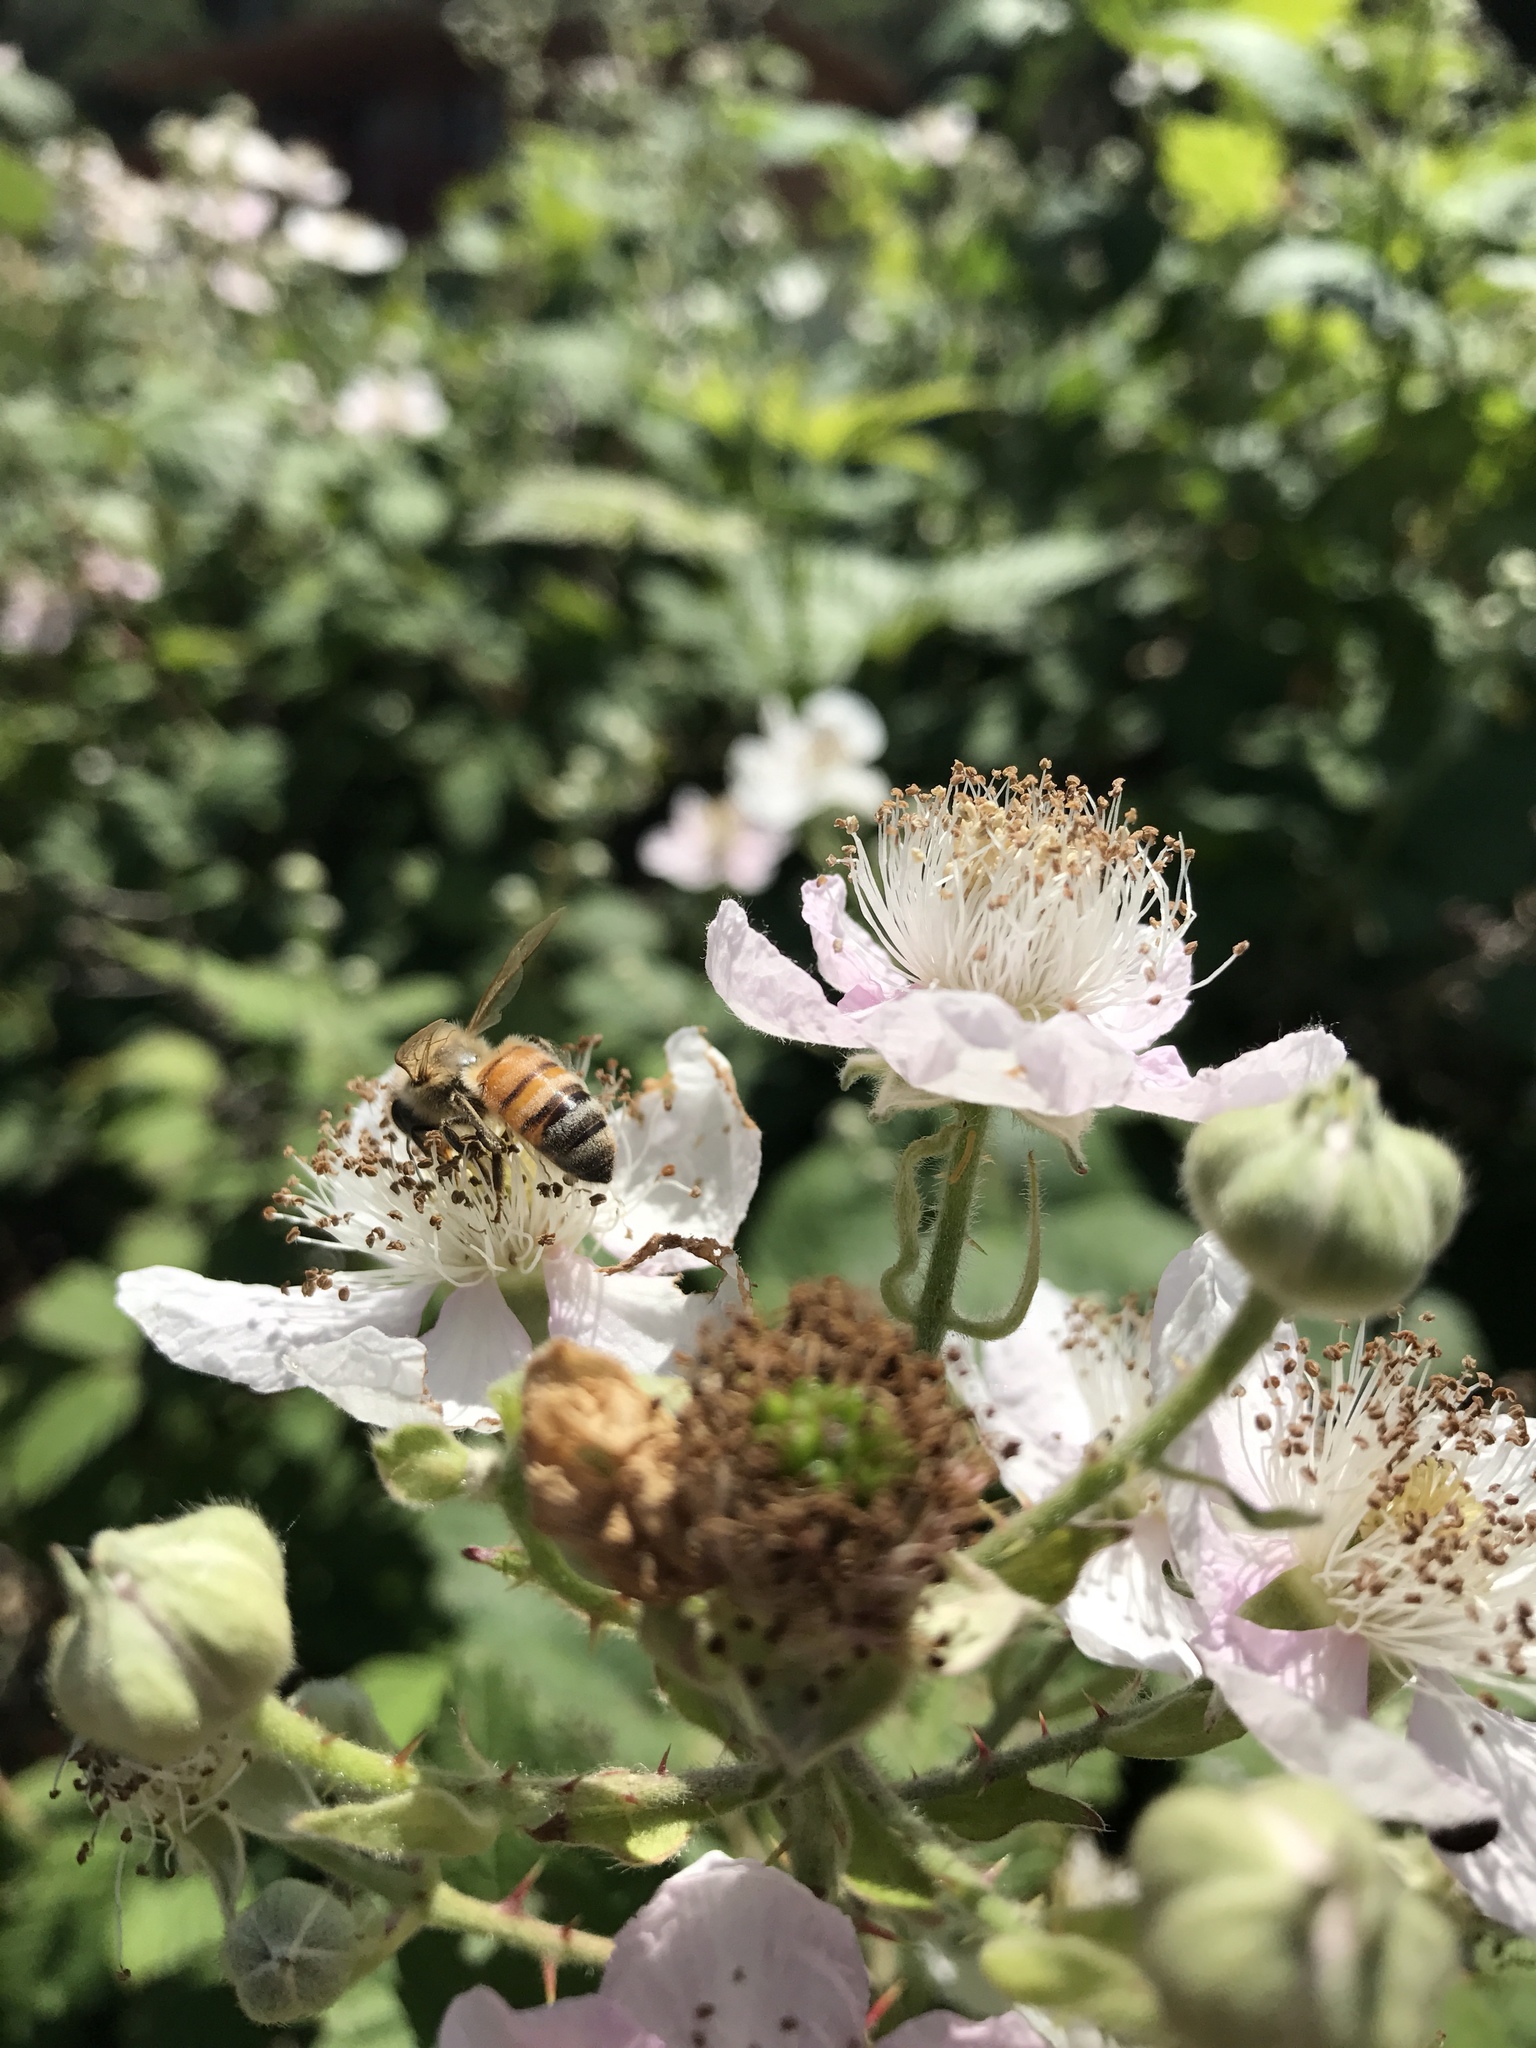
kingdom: Animalia
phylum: Arthropoda
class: Insecta
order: Hymenoptera
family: Apidae
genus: Apis
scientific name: Apis mellifera
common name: Honey bee
